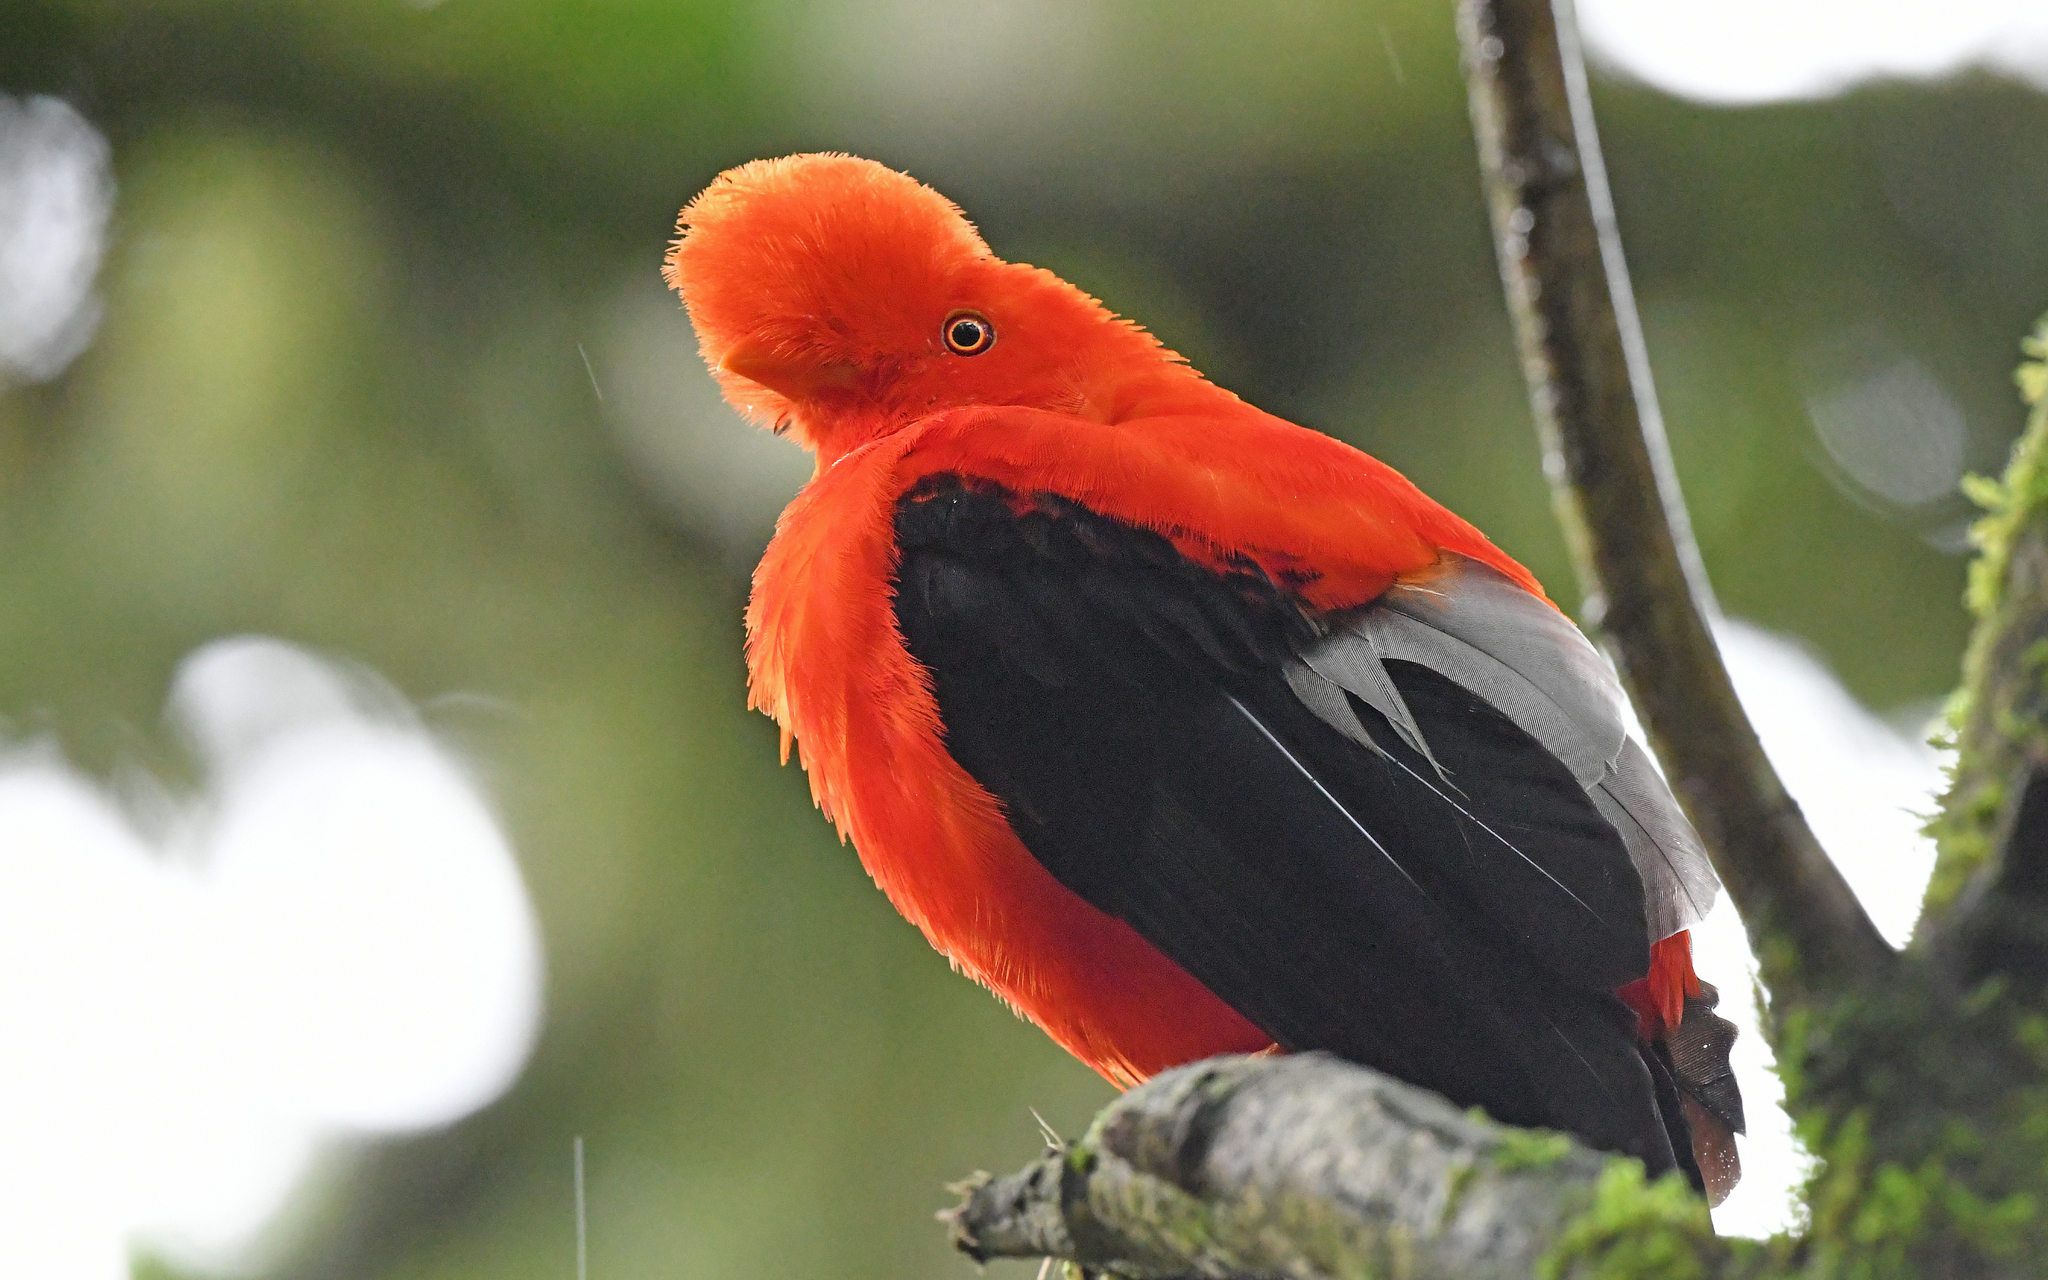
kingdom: Animalia
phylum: Chordata
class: Aves
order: Passeriformes
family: Cotingidae
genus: Rupicola
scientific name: Rupicola peruvianus
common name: Andean cock-of-the-rock
